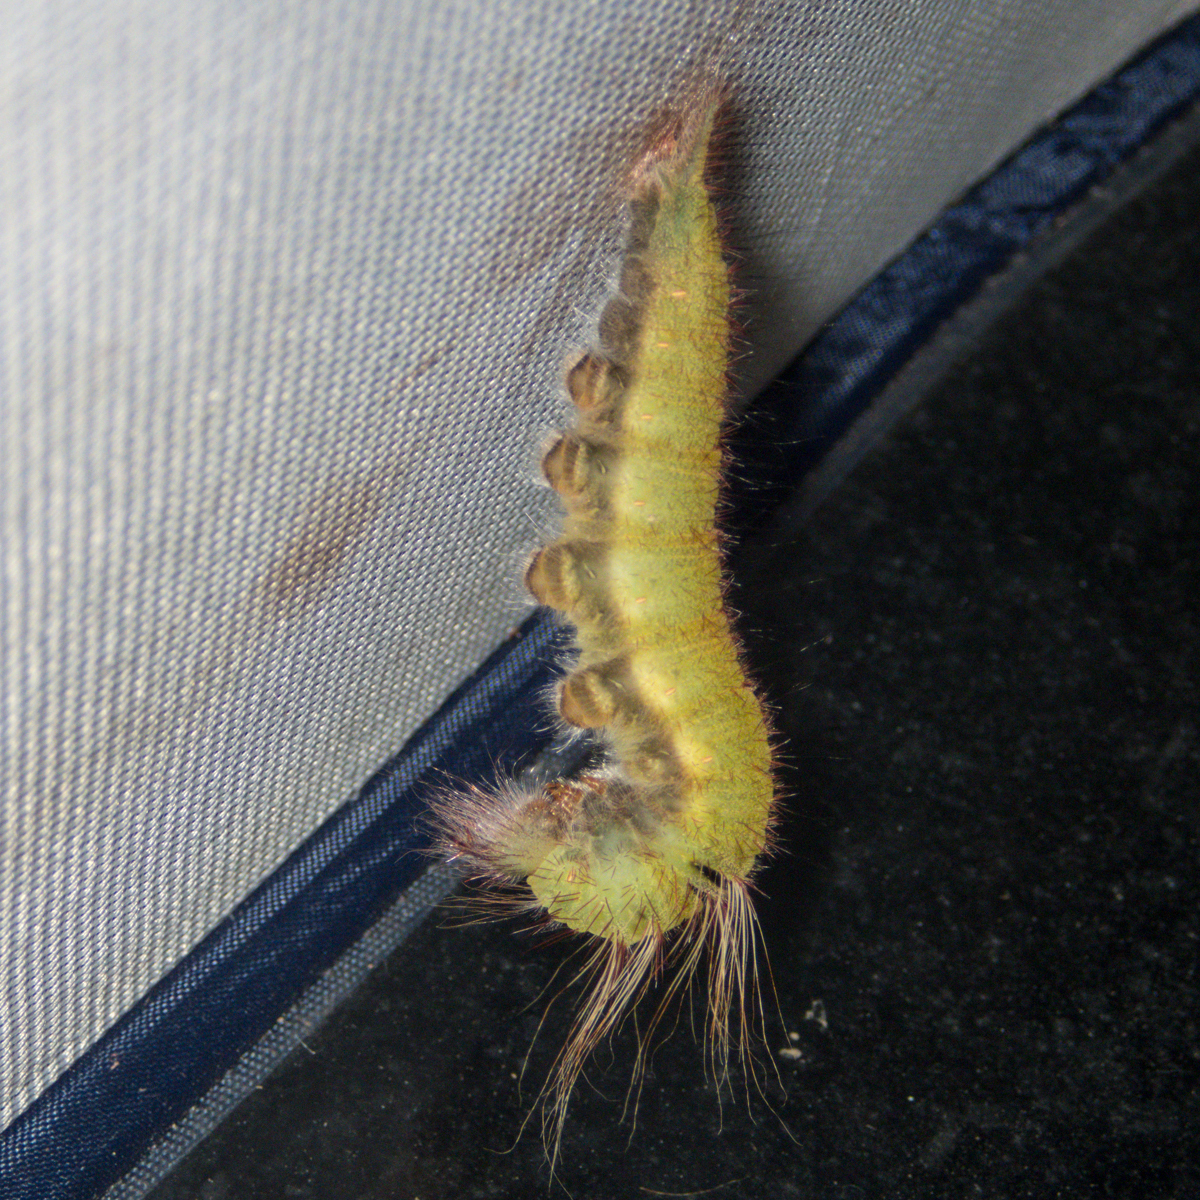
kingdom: Animalia
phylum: Arthropoda
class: Insecta
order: Lepidoptera
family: Nymphalidae
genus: Amathusia
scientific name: Amathusia phidippus
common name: Palm king
